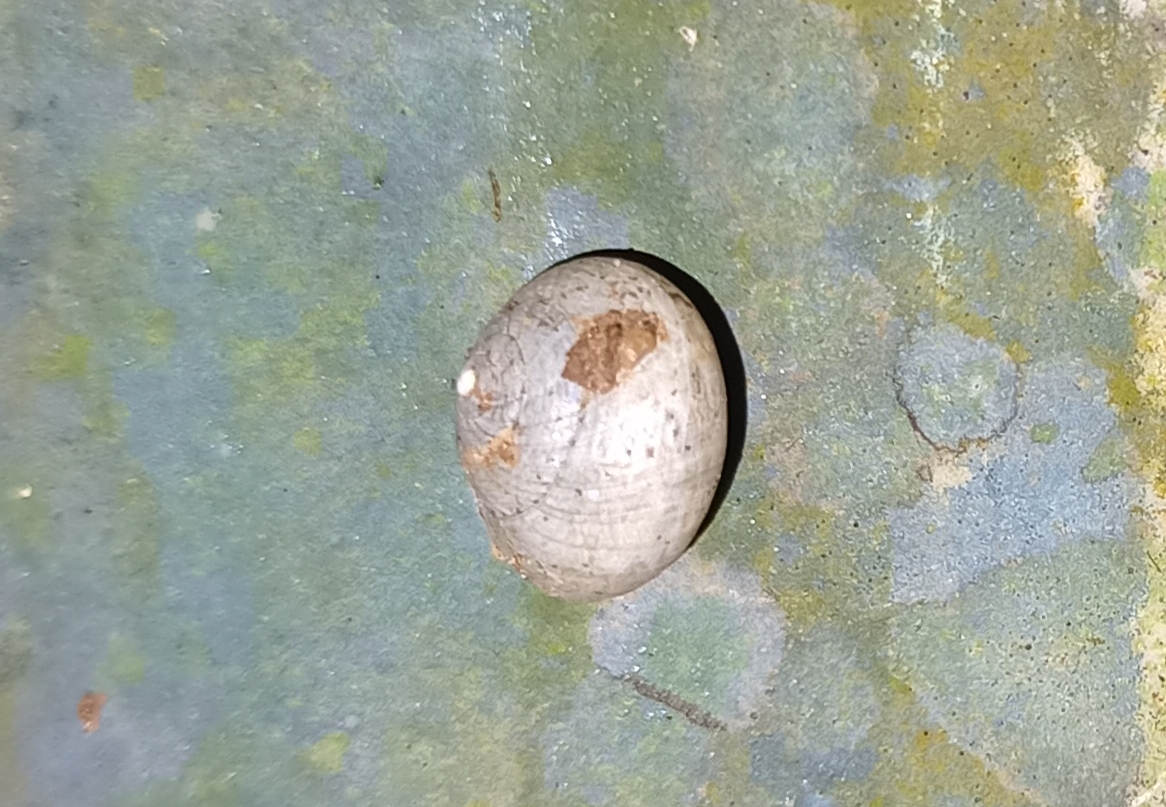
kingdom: Animalia
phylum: Mollusca
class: Gastropoda
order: Cycloneritida
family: Helicinidae
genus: Helicina
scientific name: Helicina boettgeri
